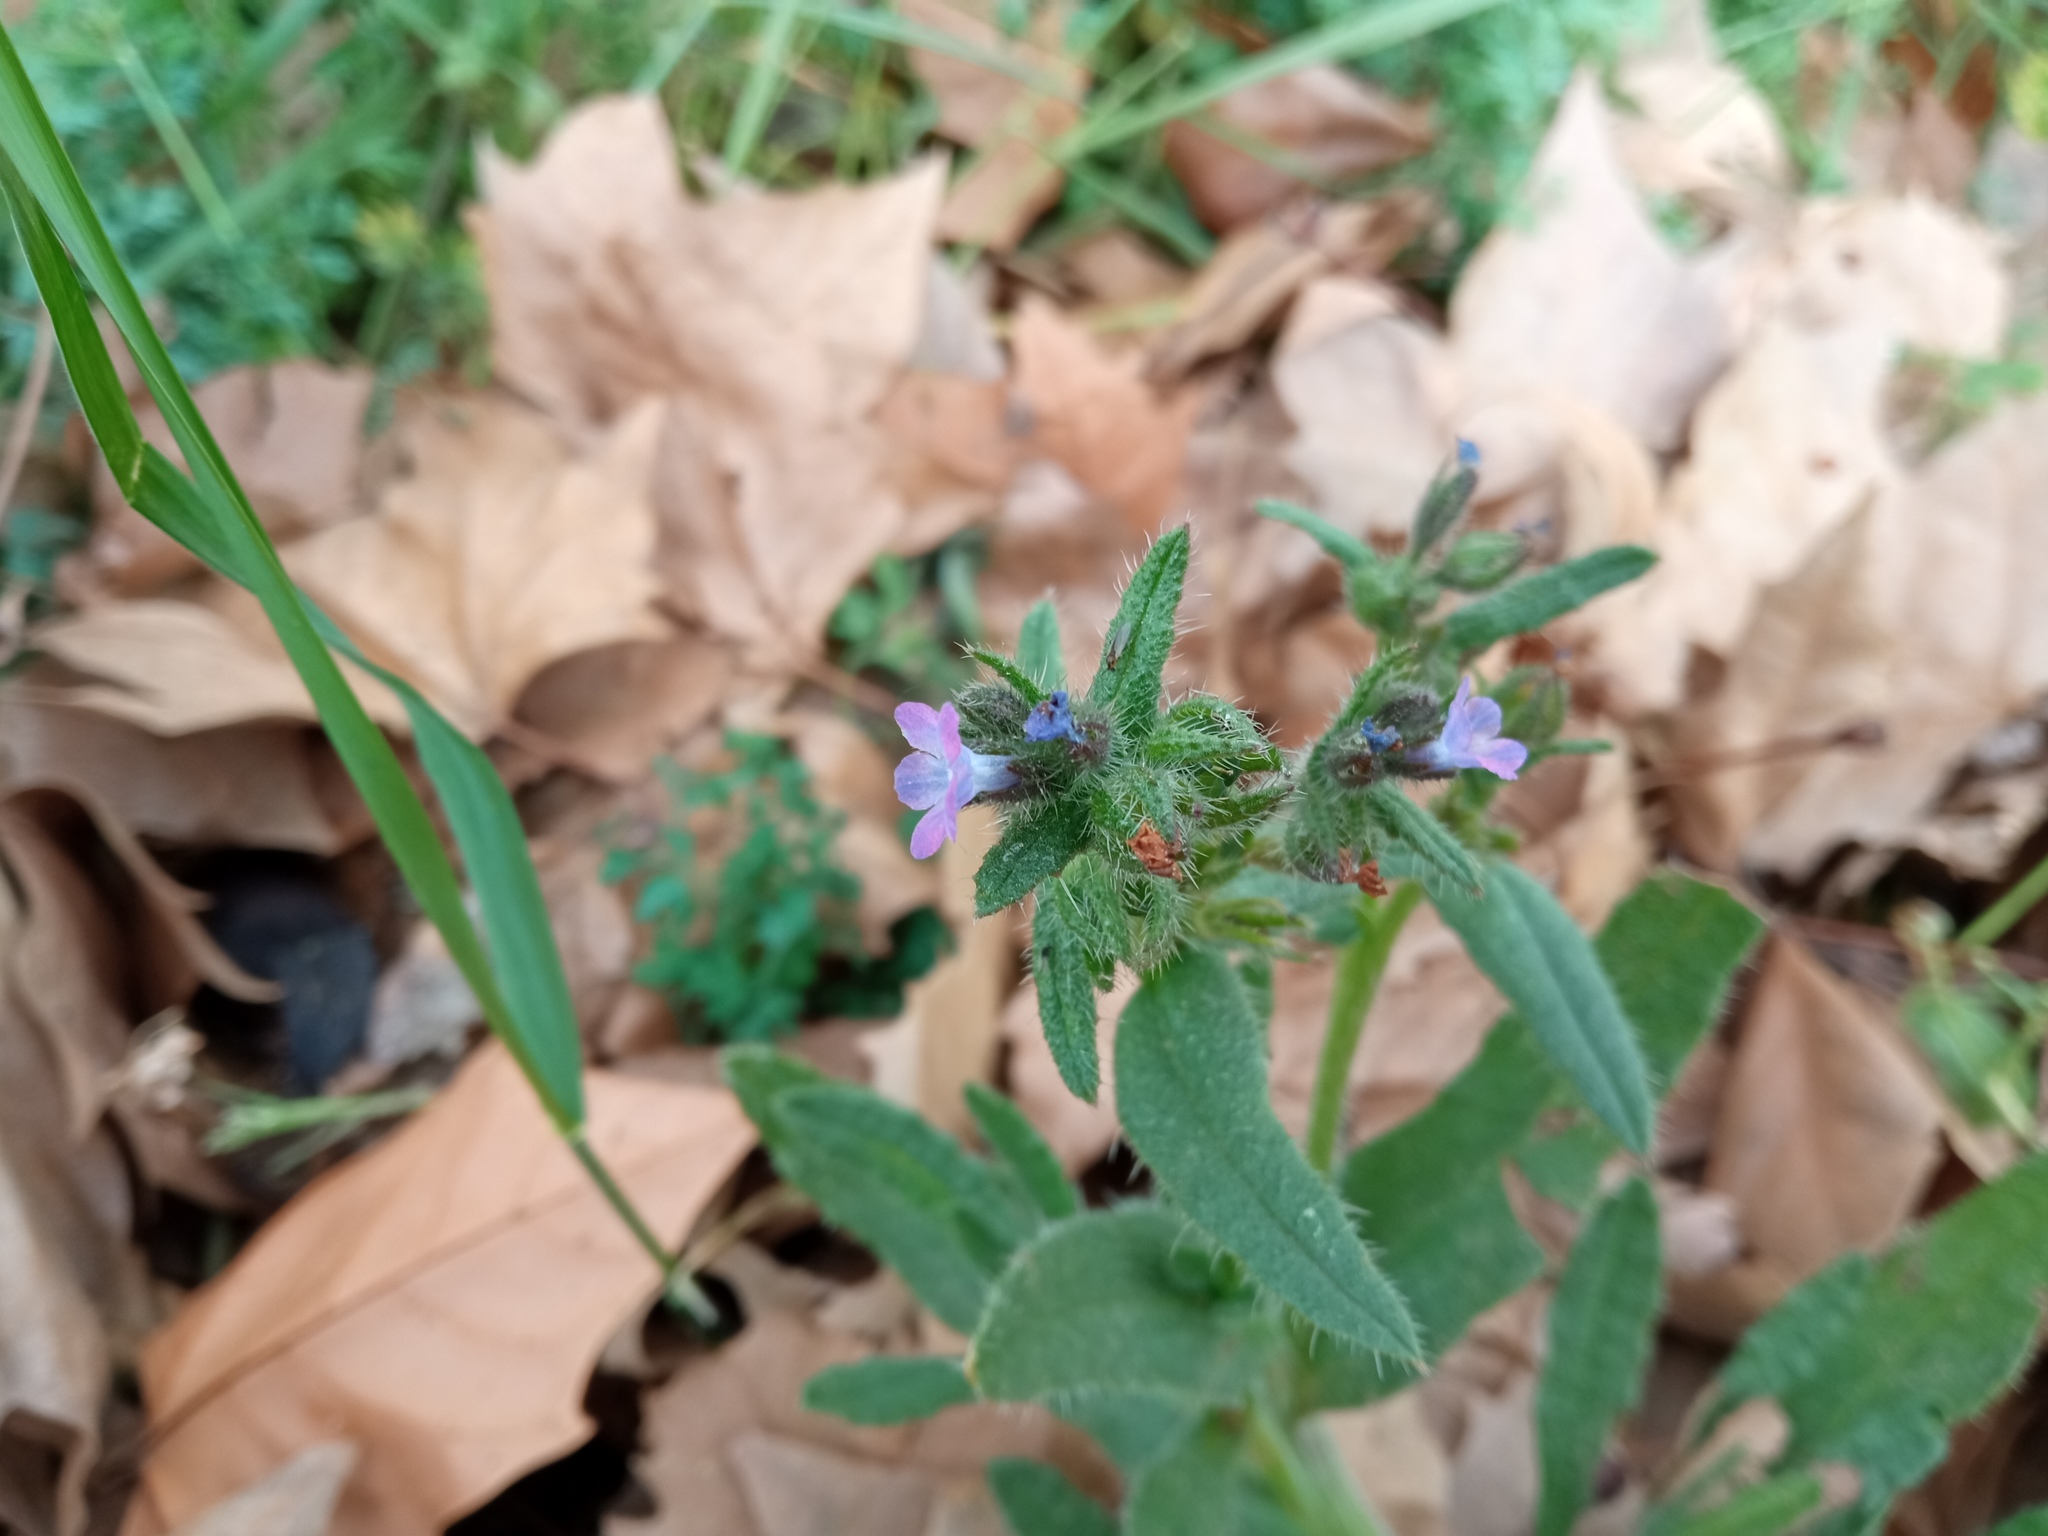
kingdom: Plantae
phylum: Tracheophyta
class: Magnoliopsida
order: Boraginales
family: Boraginaceae
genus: Lycopsis
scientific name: Lycopsis arvensis
